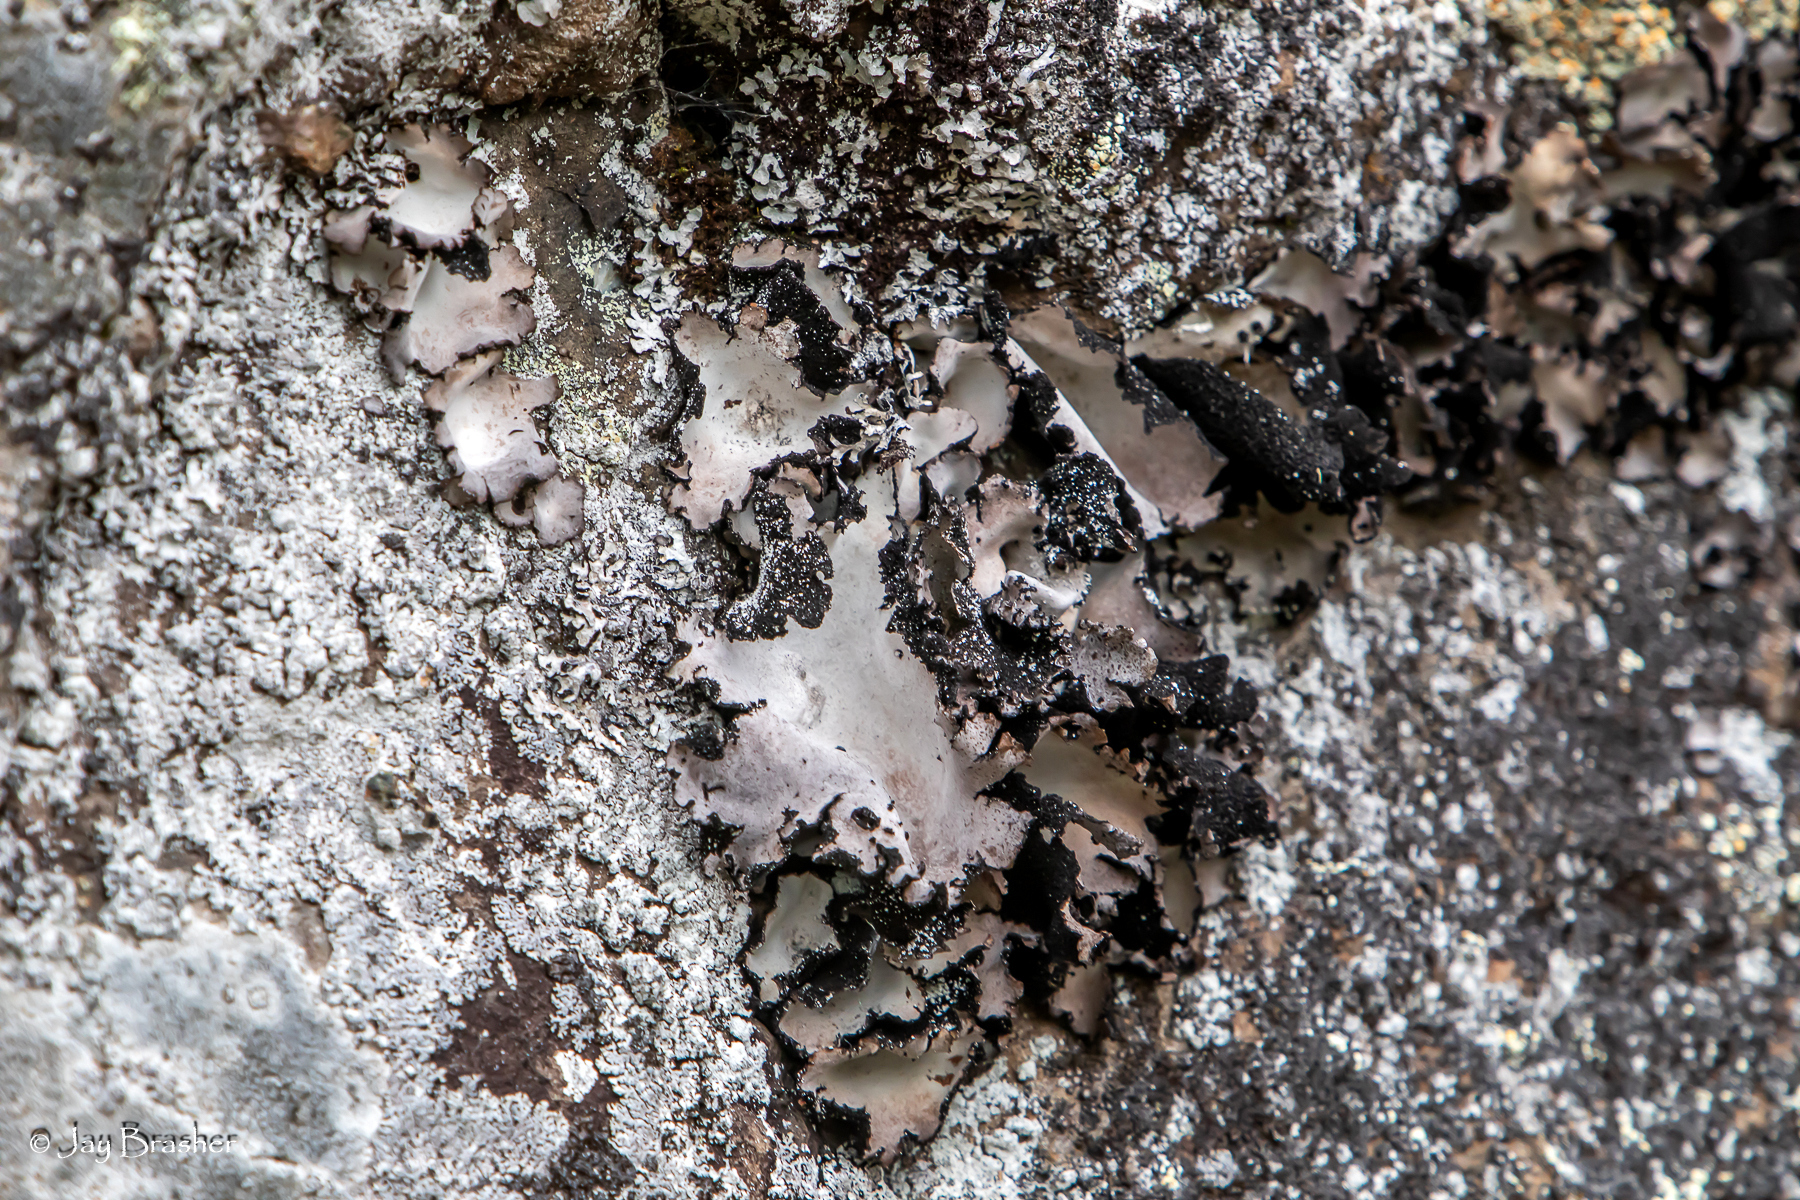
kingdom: Fungi
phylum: Ascomycota
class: Lecanoromycetes
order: Umbilicariales
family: Umbilicariaceae
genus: Umbilicaria
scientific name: Umbilicaria americana
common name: Frosted rock tripe
